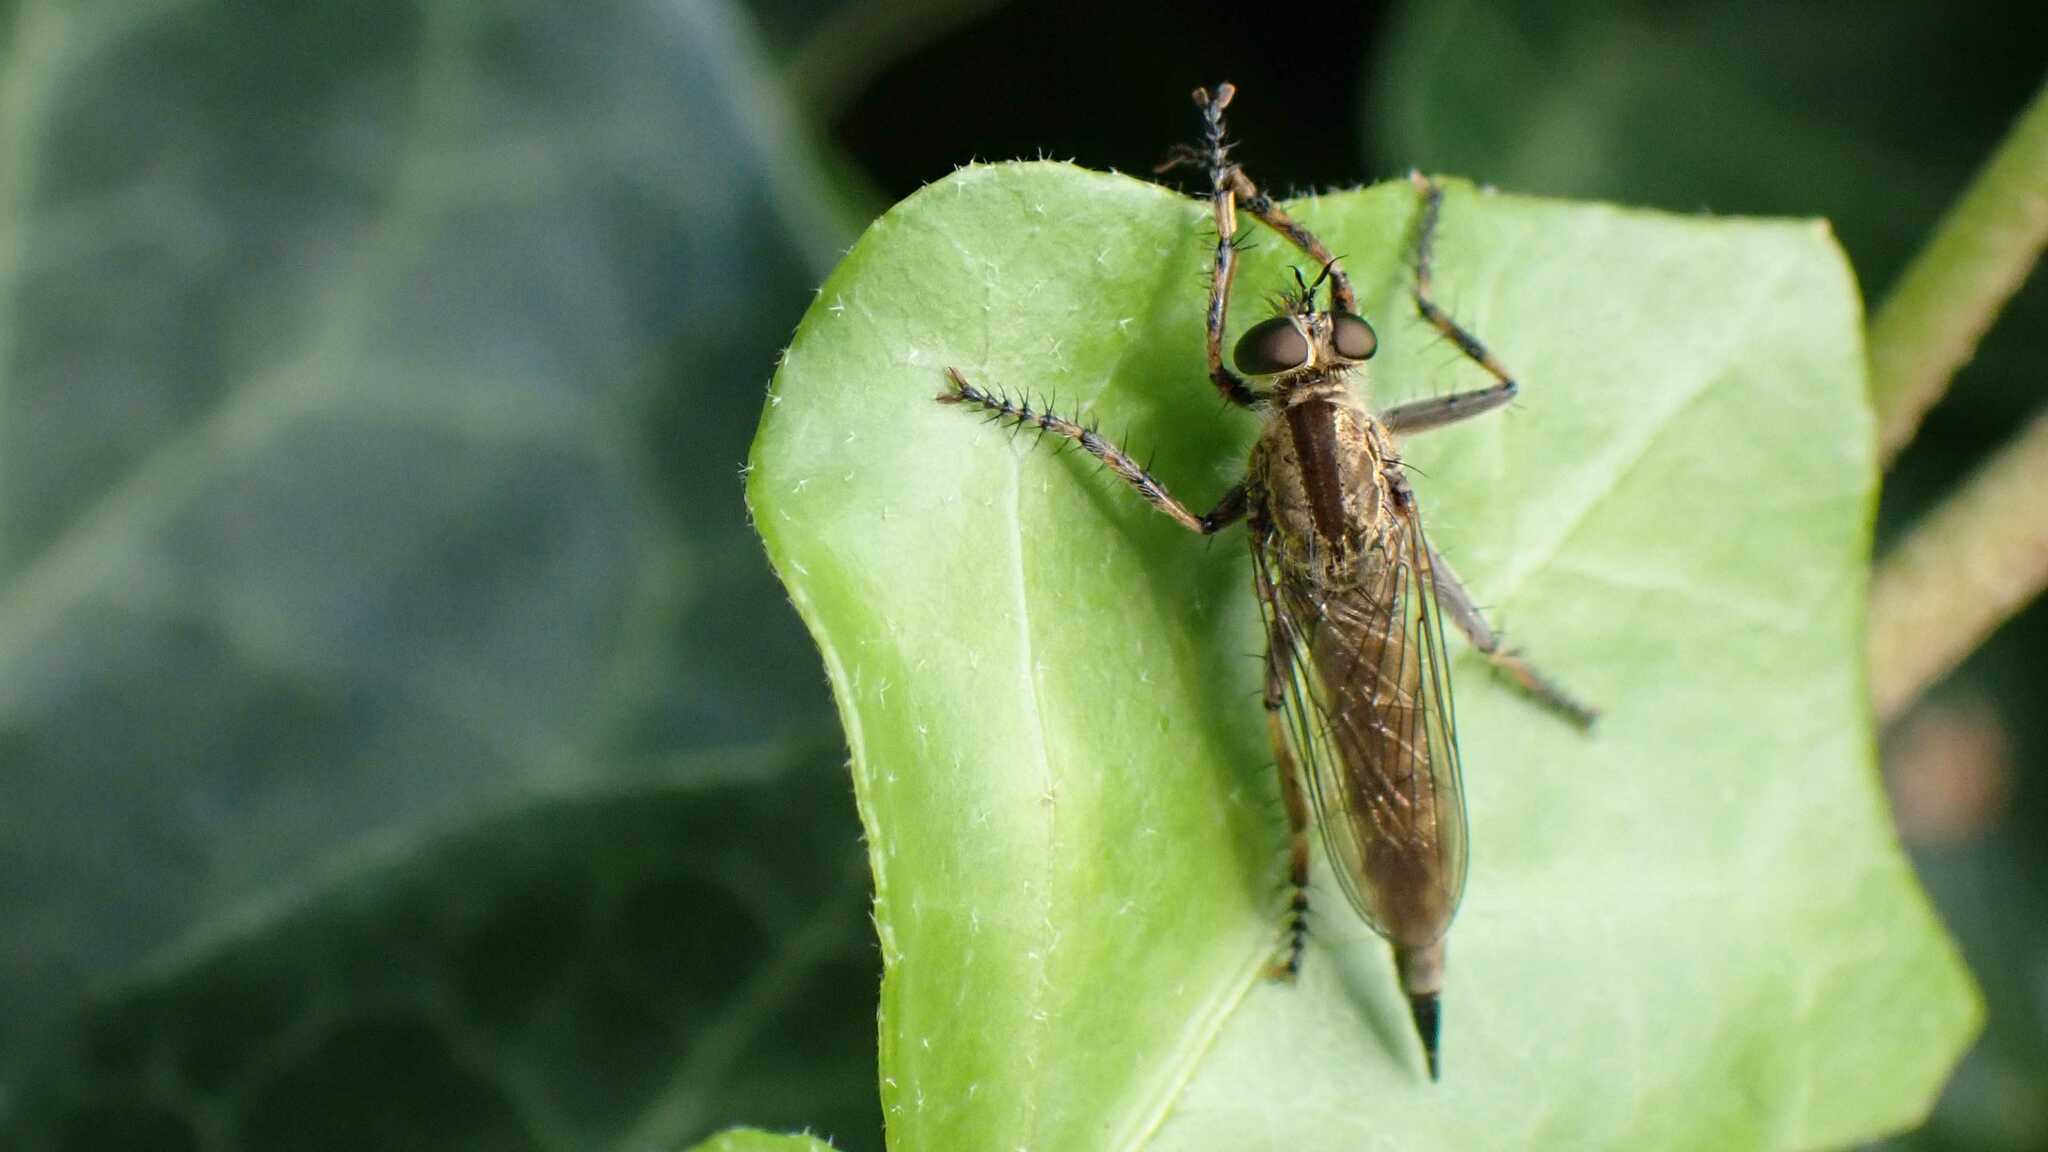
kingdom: Animalia
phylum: Arthropoda
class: Insecta
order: Diptera
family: Asilidae
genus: Epitriptus
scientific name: Epitriptus cingulatus
